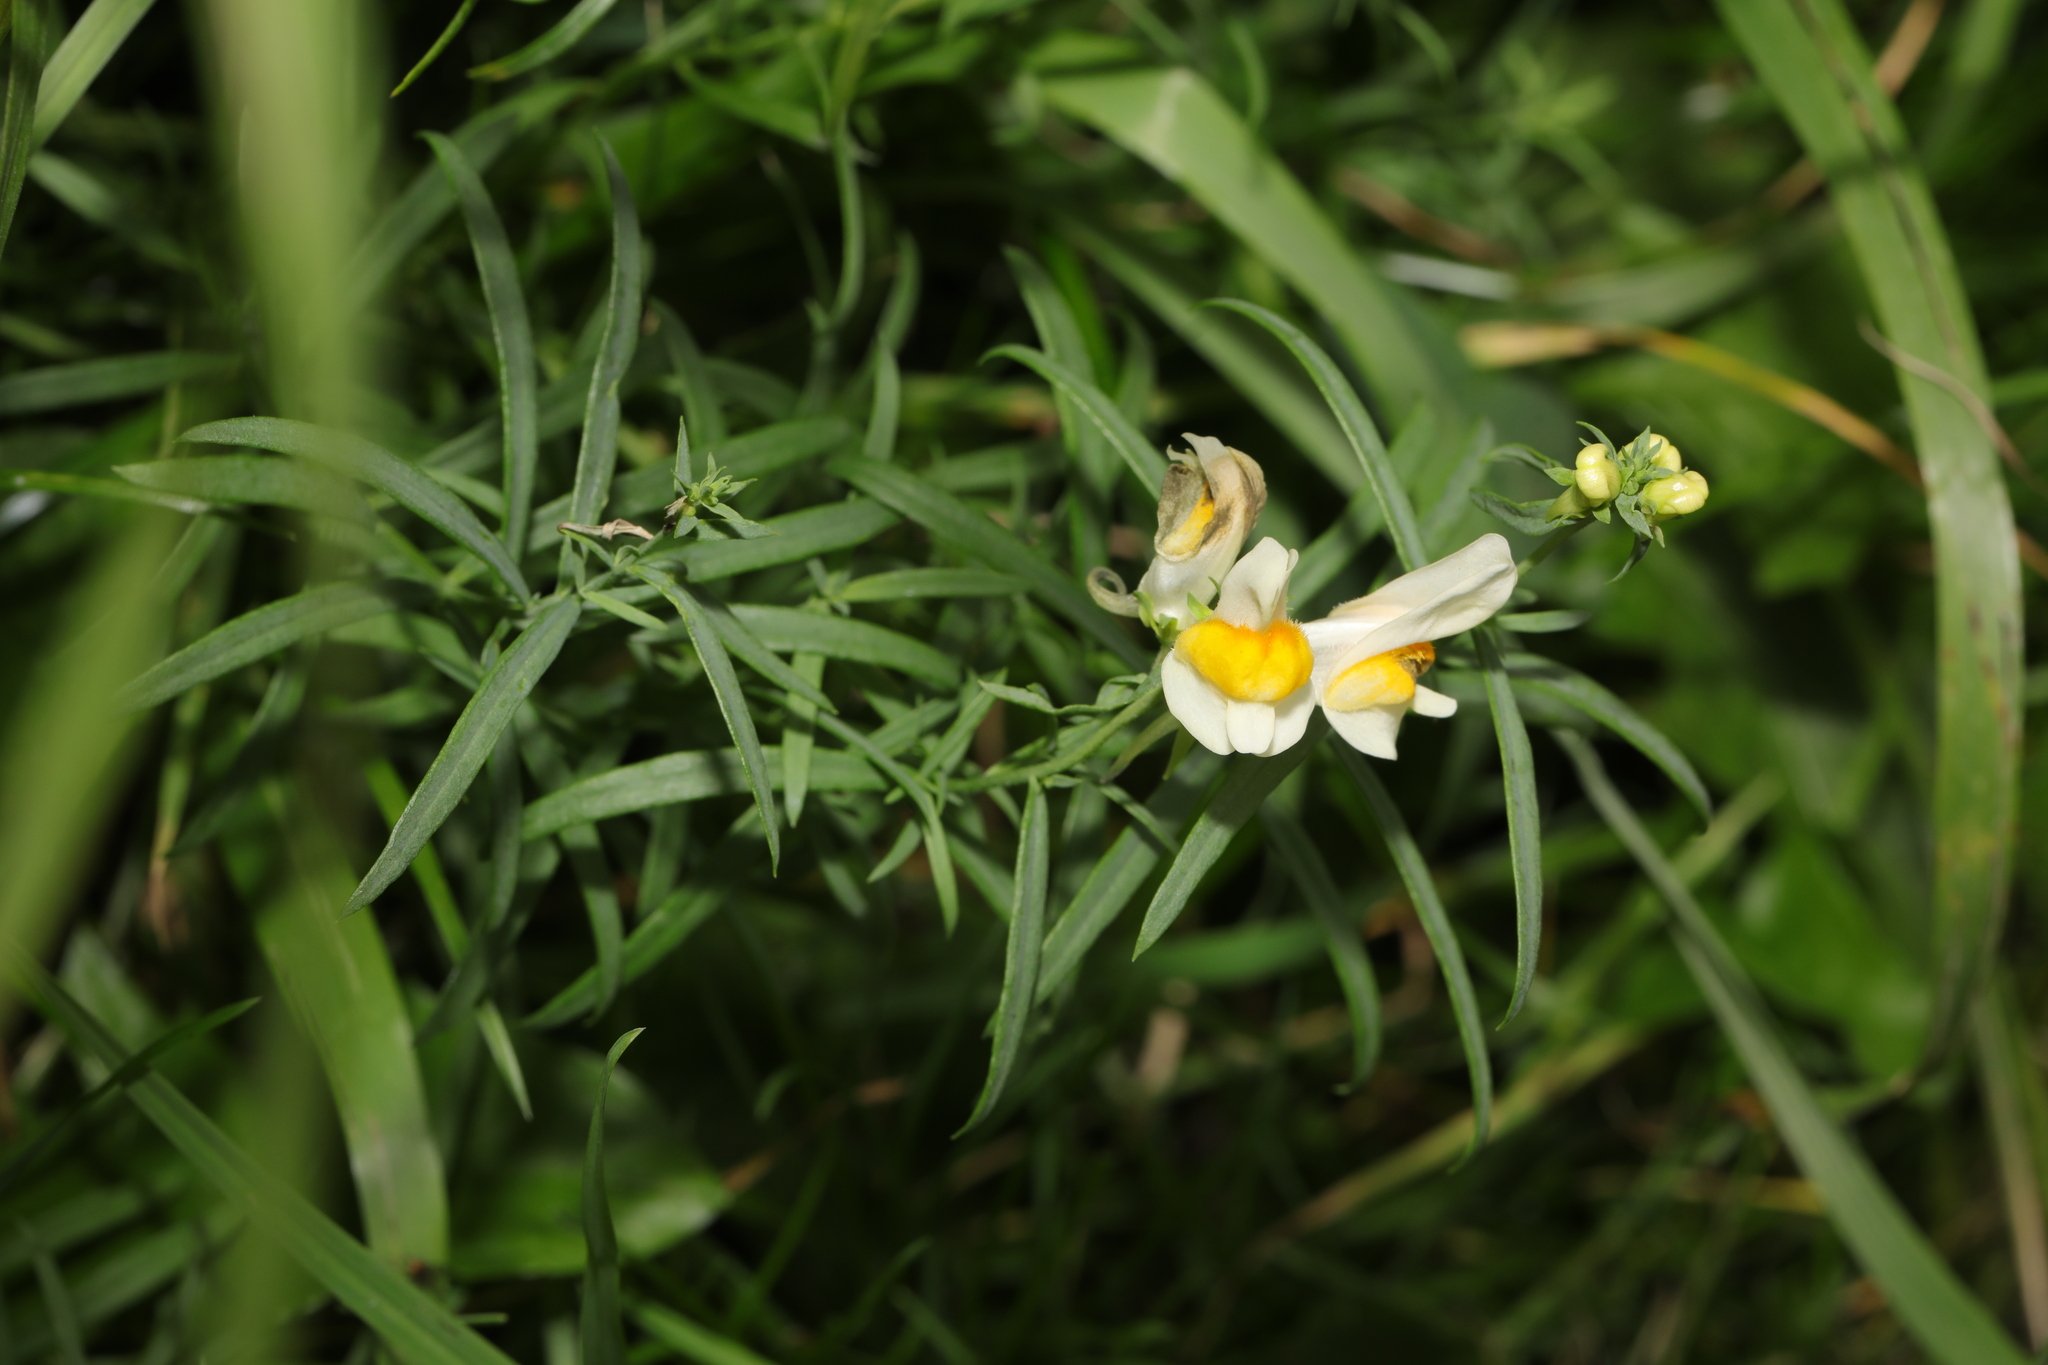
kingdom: Plantae
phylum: Tracheophyta
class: Magnoliopsida
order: Lamiales
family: Plantaginaceae
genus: Linaria
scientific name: Linaria vulgaris
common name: Butter and eggs
